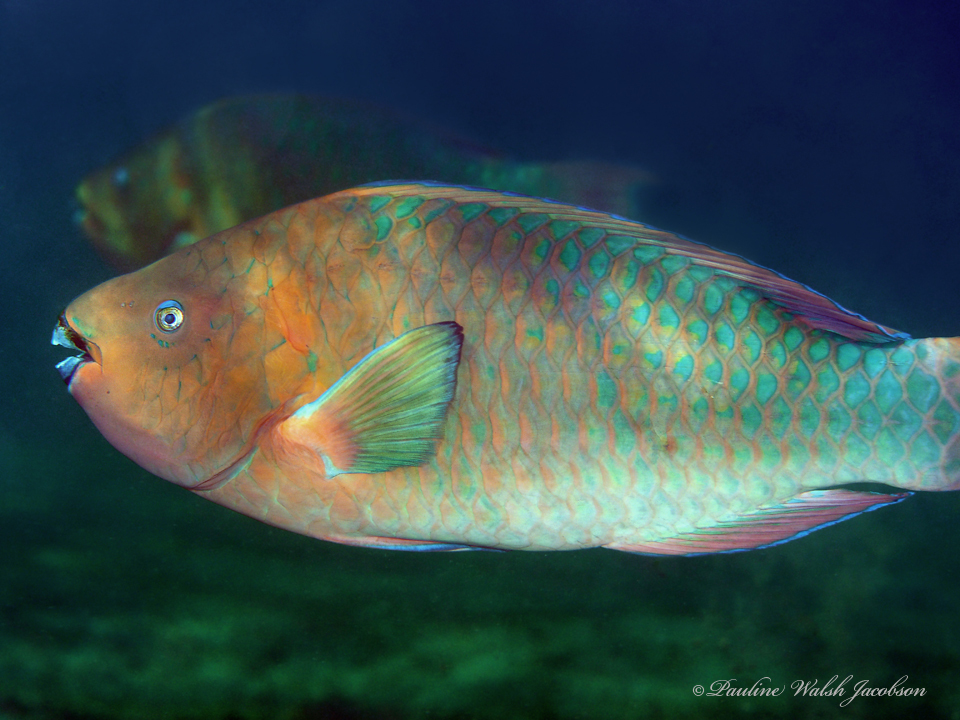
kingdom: Animalia
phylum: Chordata
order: Perciformes
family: Scaridae
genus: Scarus
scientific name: Scarus guacamaia
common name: Rainbow parrotfish
